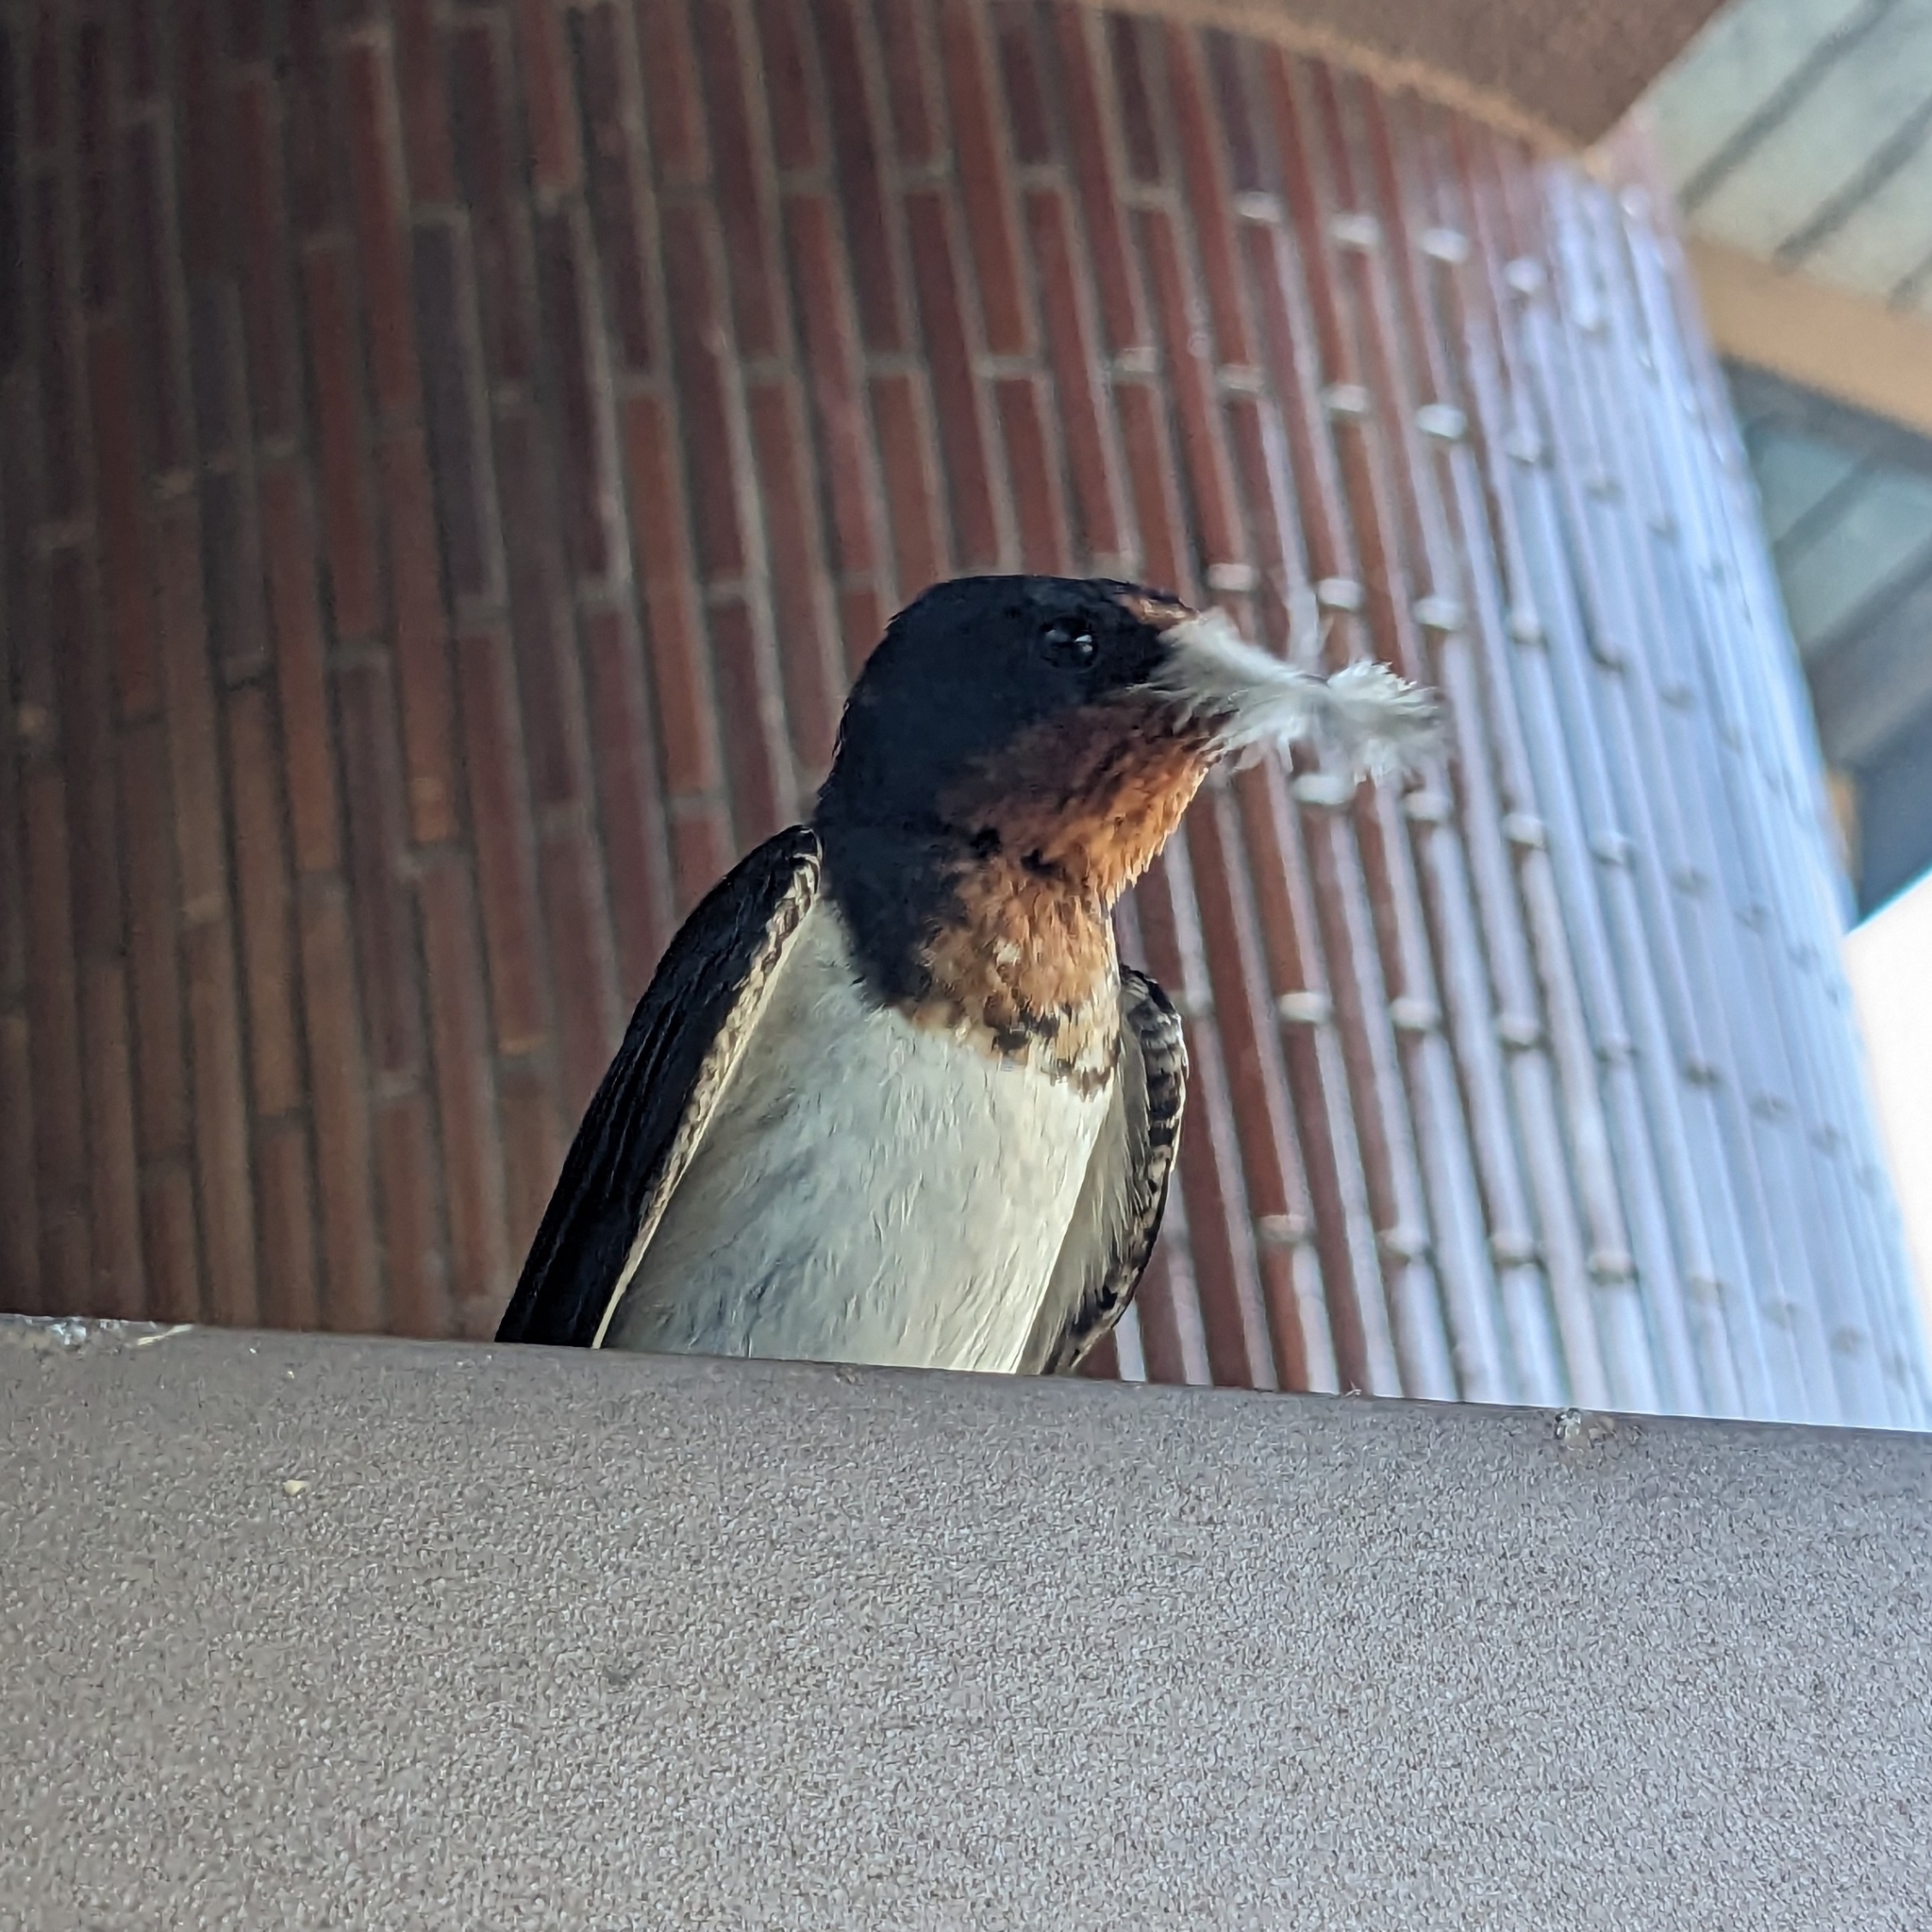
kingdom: Animalia
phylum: Chordata
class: Aves
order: Passeriformes
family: Hirundinidae
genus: Hirundo
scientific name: Hirundo rustica
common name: Barn swallow
